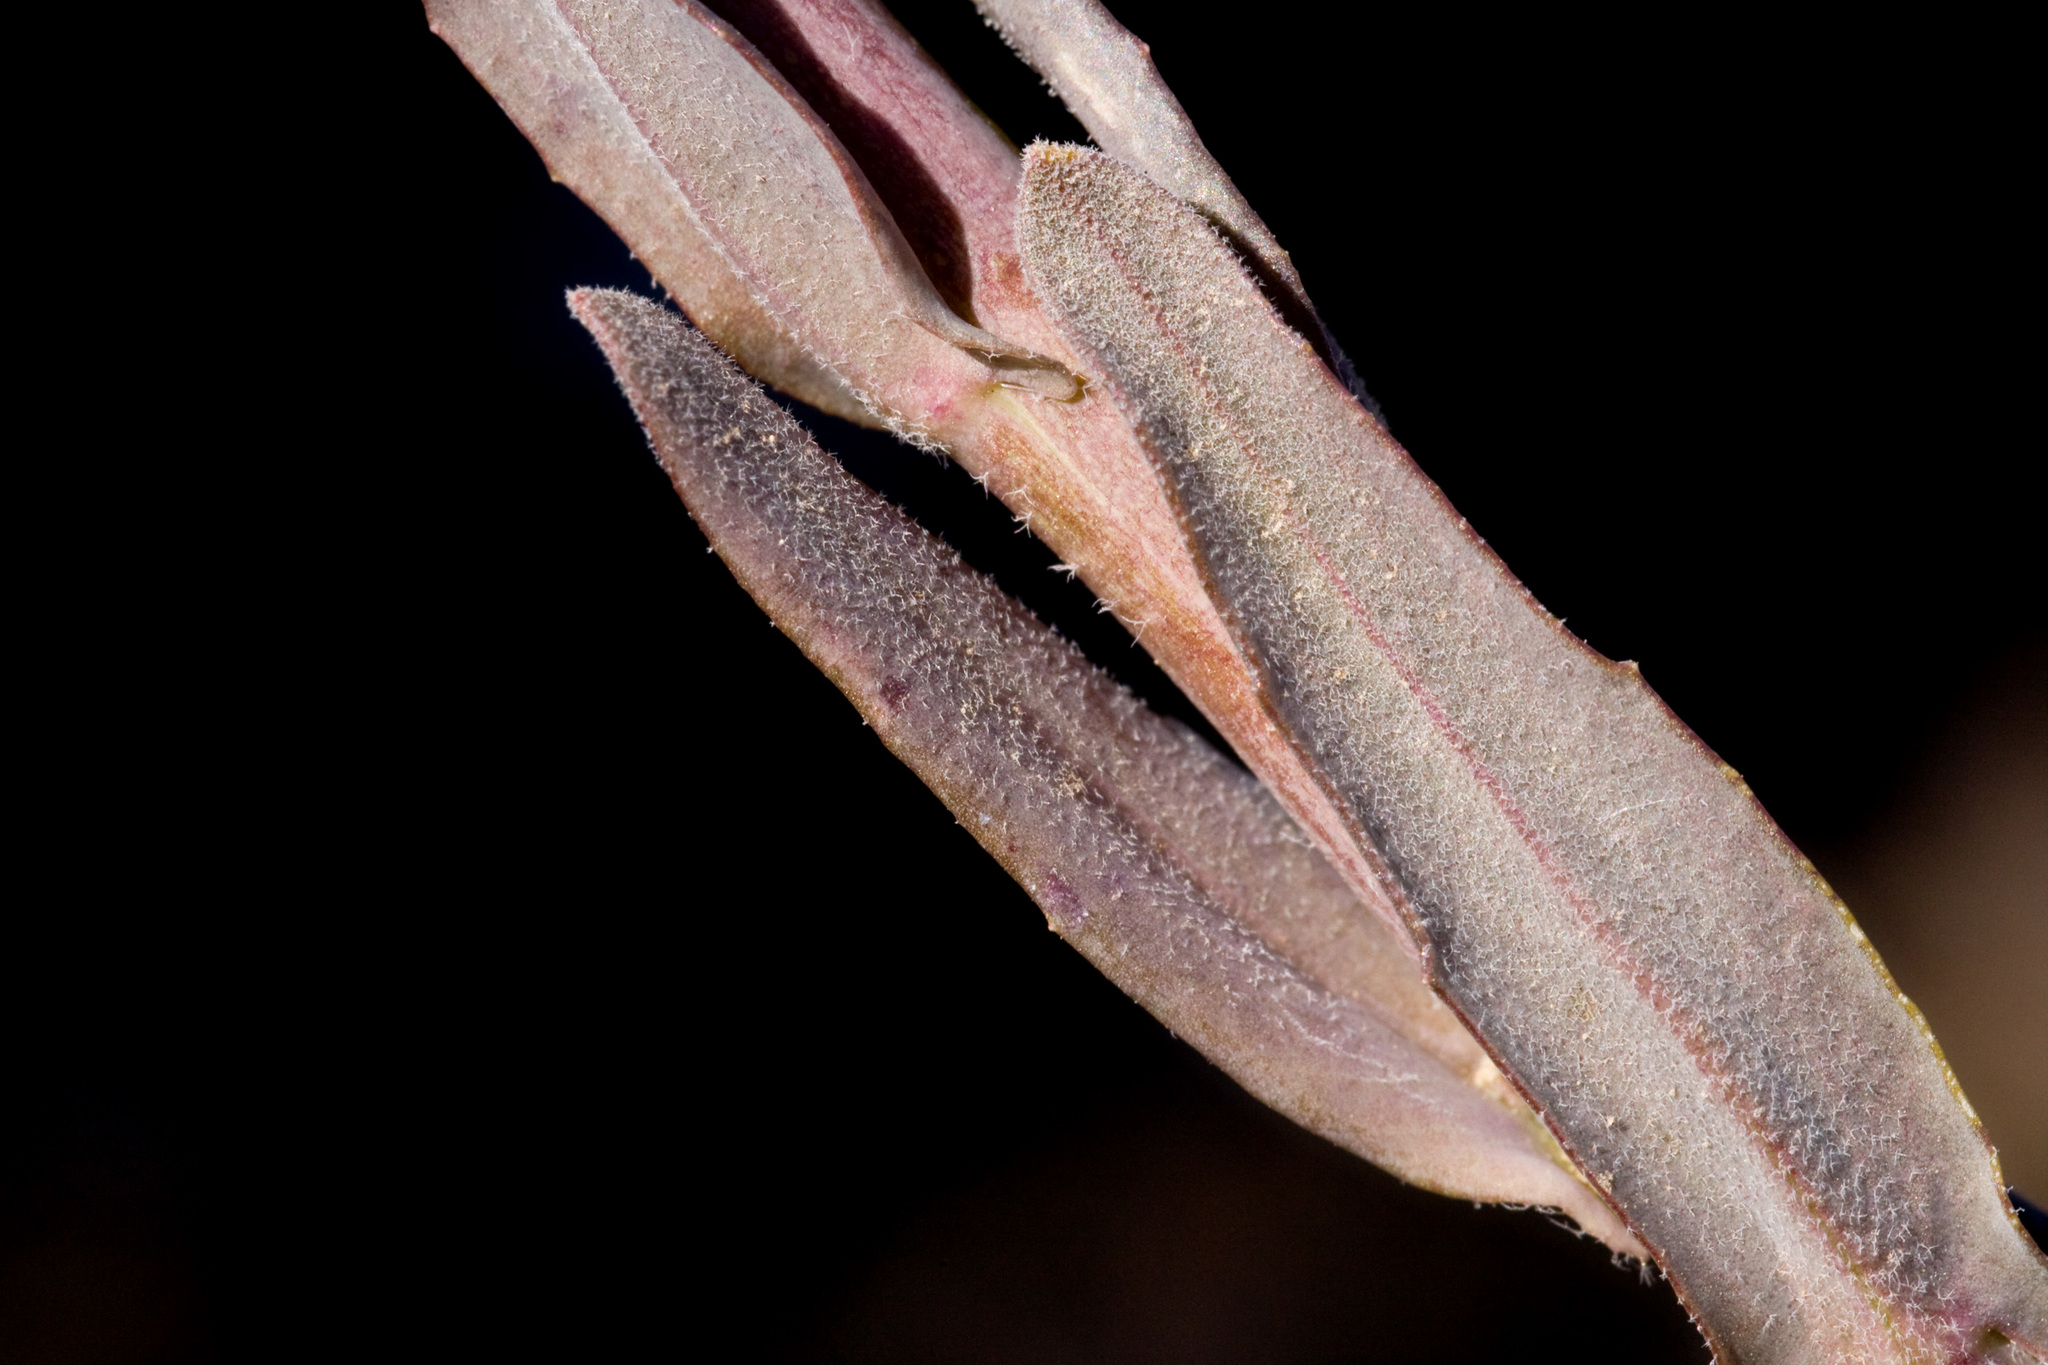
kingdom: Plantae
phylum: Tracheophyta
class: Magnoliopsida
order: Brassicales
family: Brassicaceae
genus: Boechera
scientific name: Boechera pseudoconsanguinea
